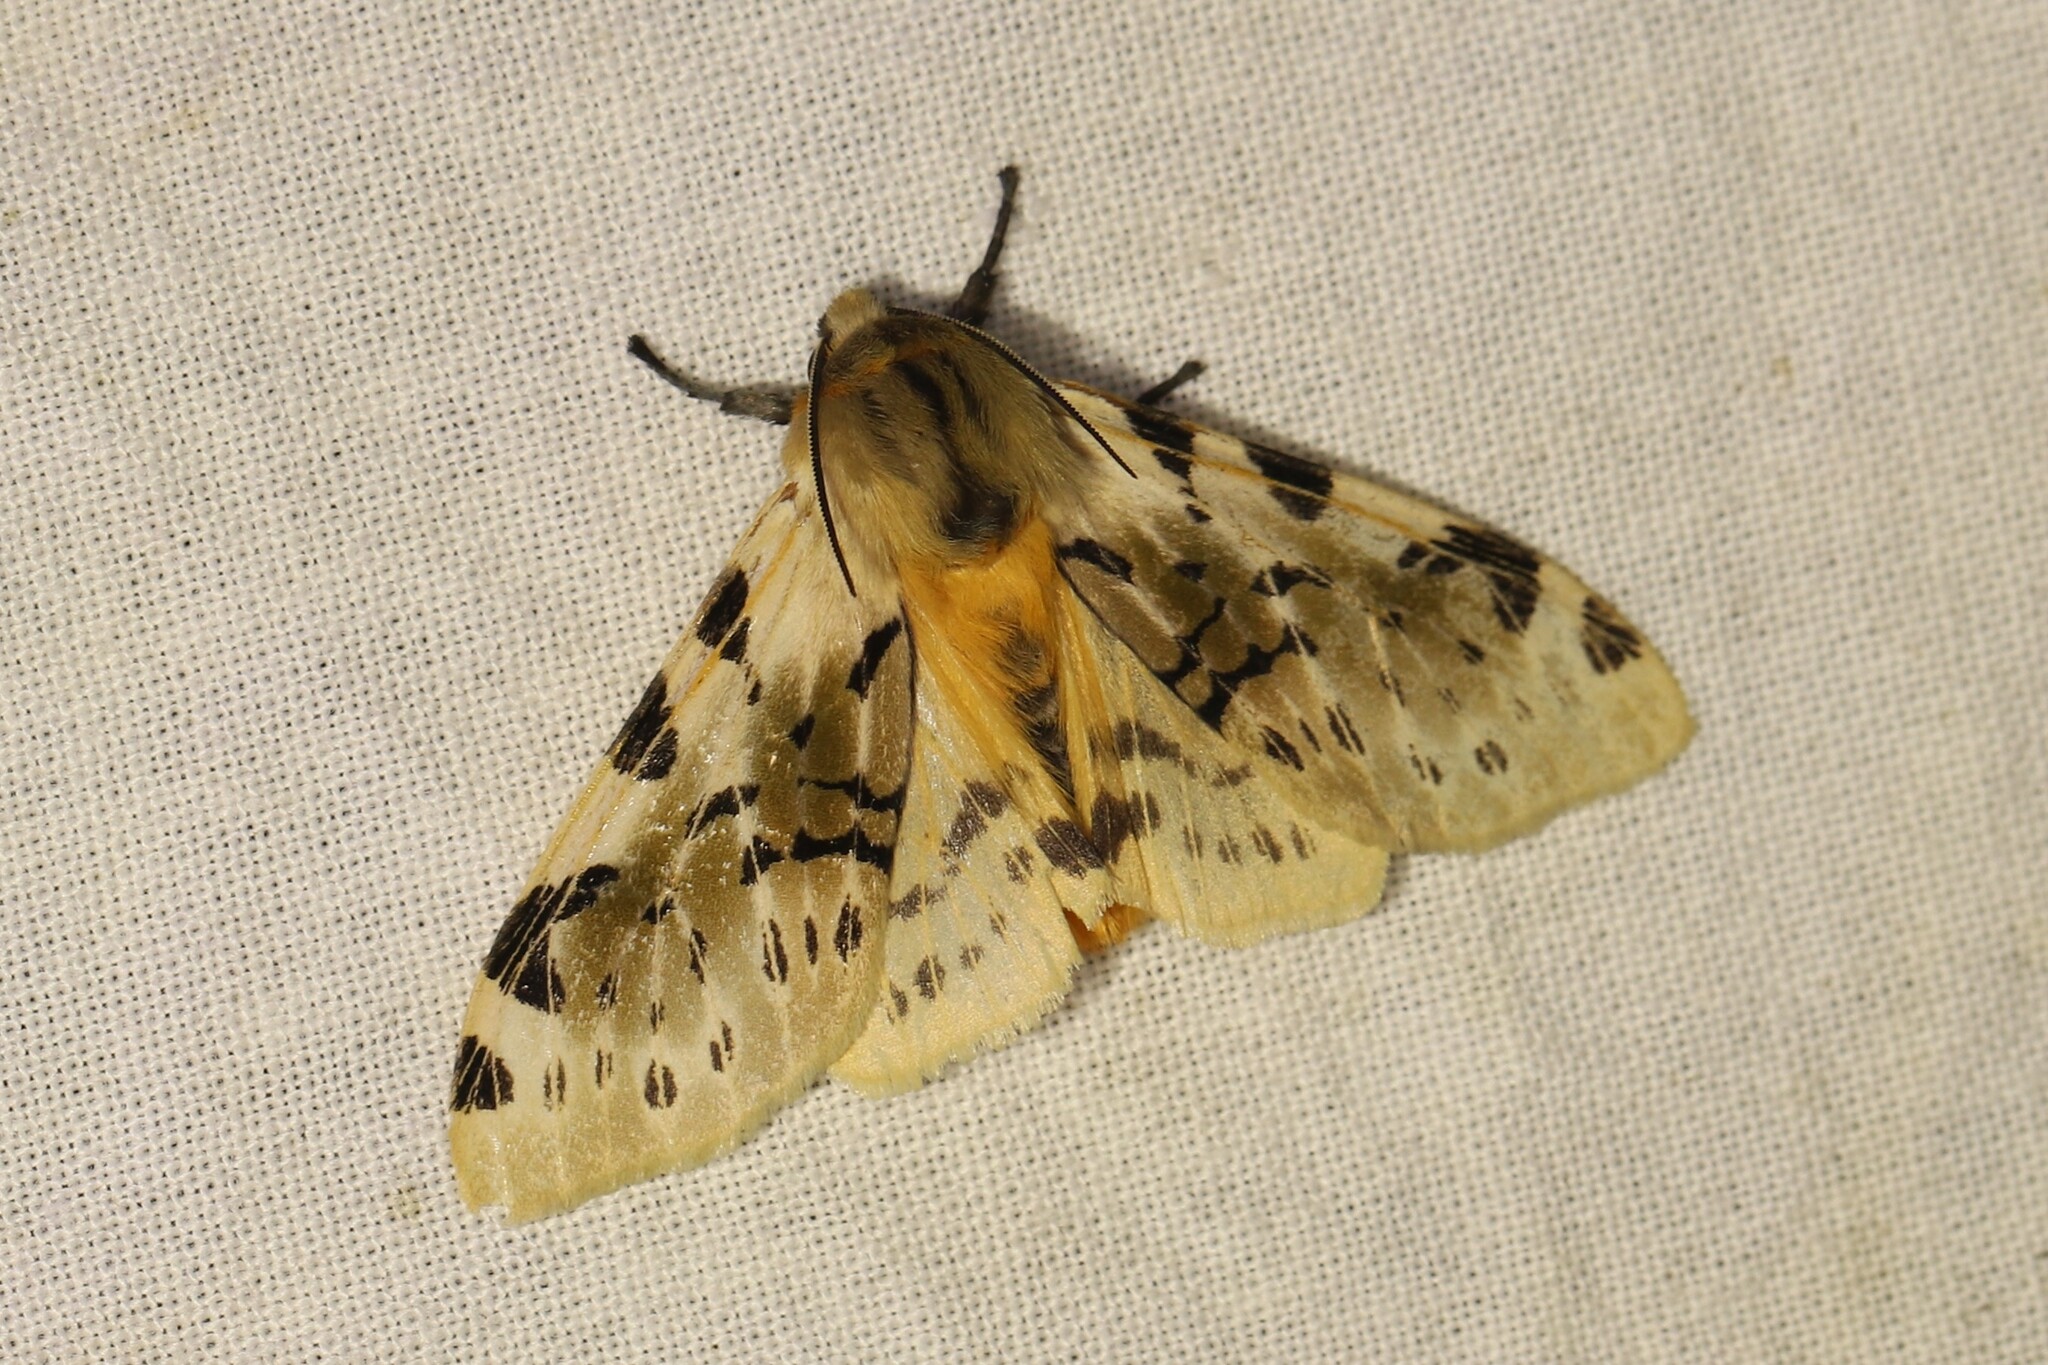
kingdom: Animalia
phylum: Arthropoda
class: Insecta
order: Lepidoptera
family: Erebidae
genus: Hypercompe
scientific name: Hypercompe nemophila
